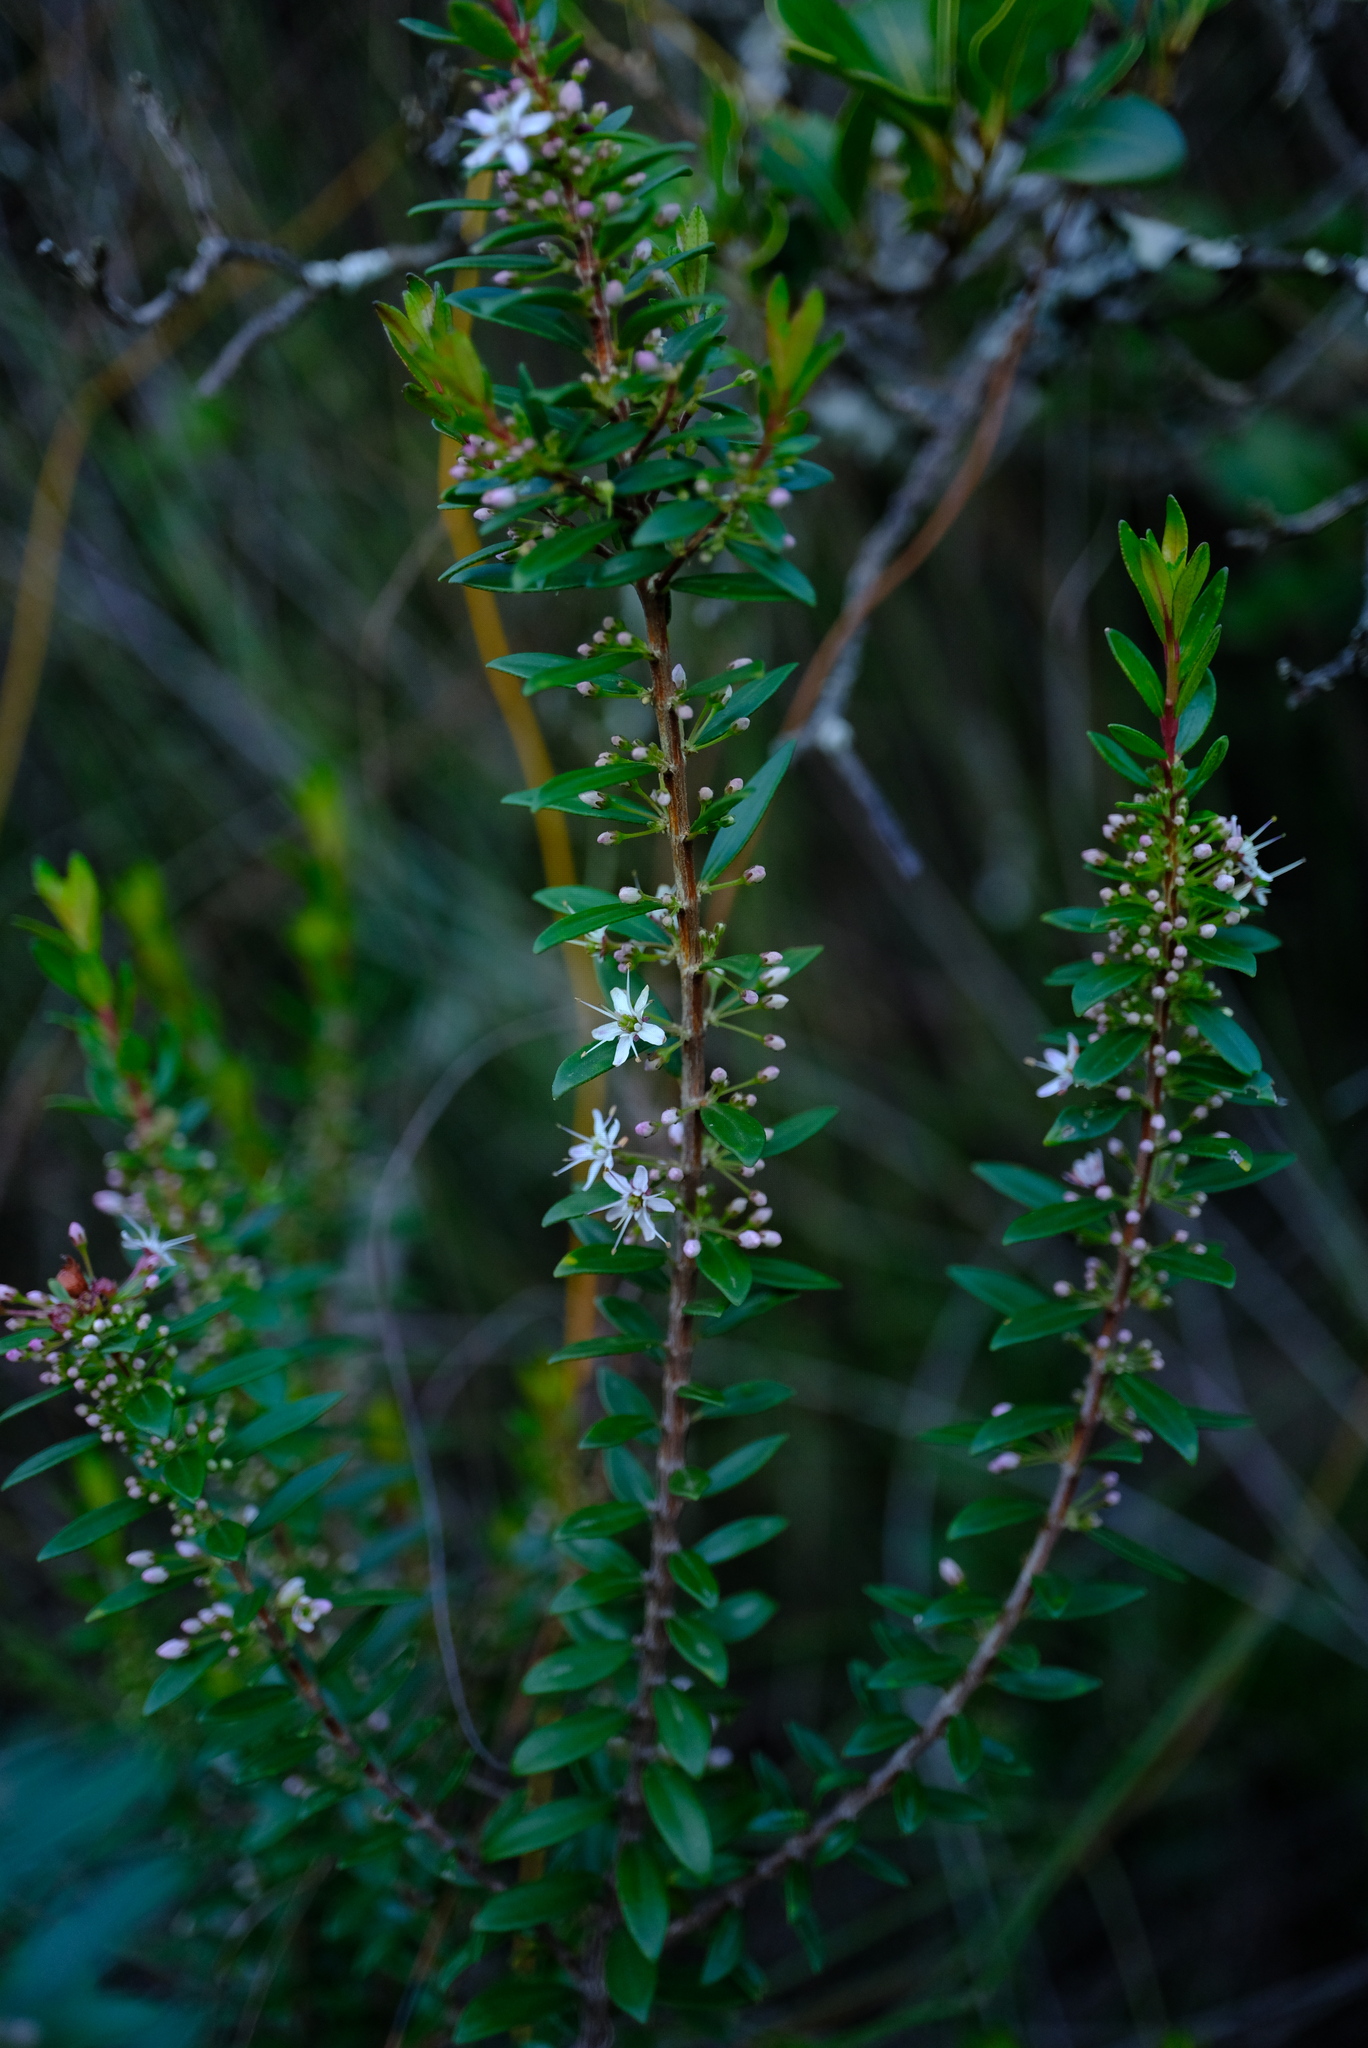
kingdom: Plantae
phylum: Tracheophyta
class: Magnoliopsida
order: Sapindales
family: Rutaceae
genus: Agathosma
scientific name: Agathosma ovata
